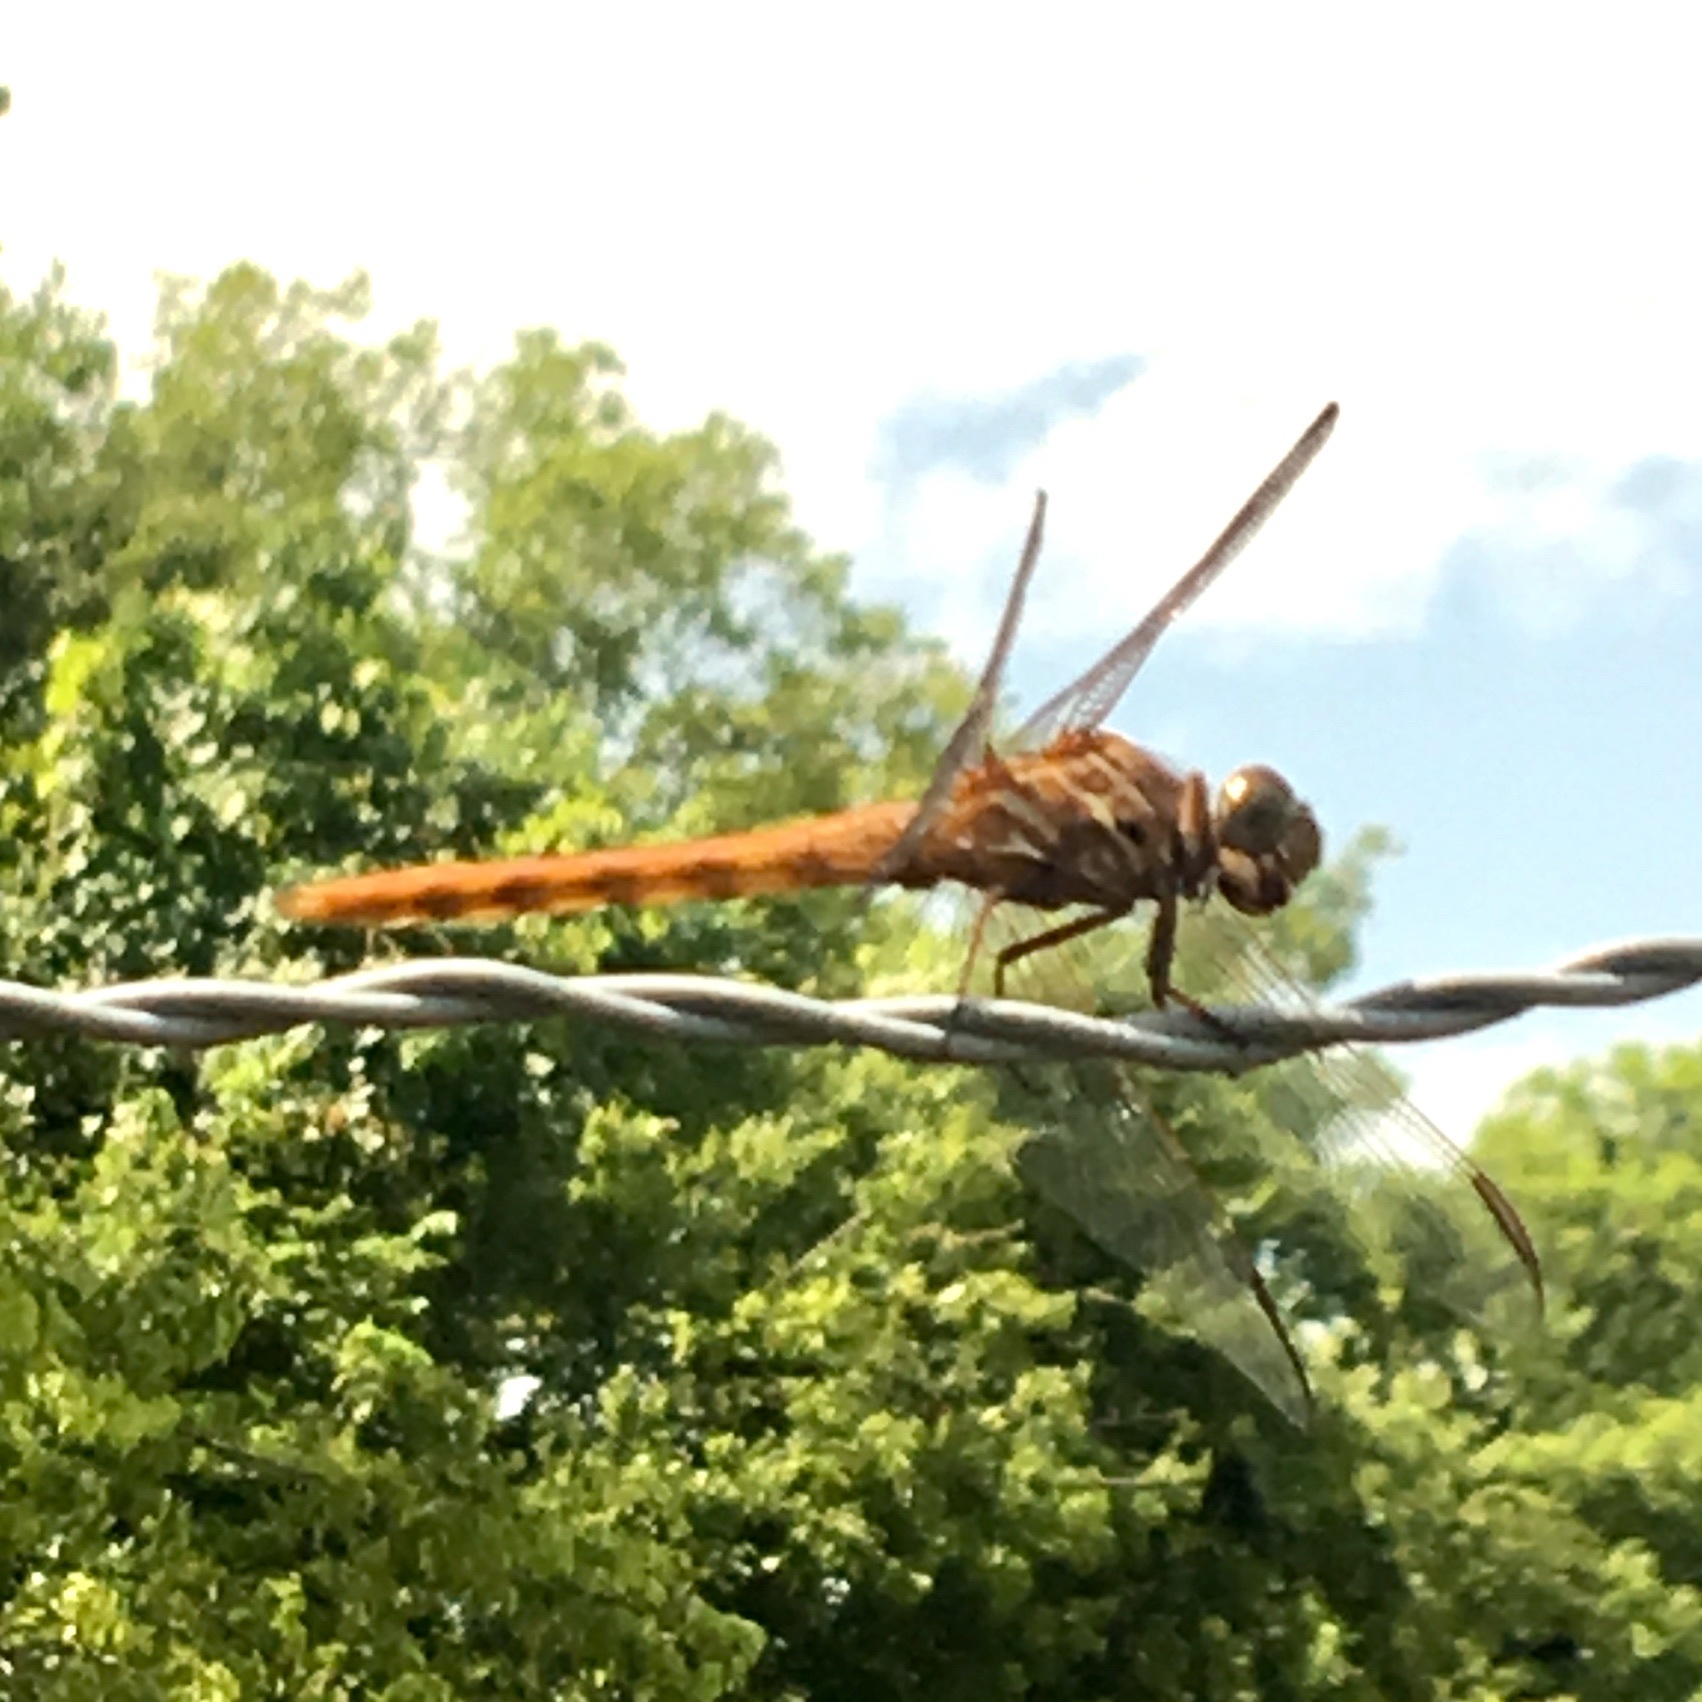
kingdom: Animalia
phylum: Arthropoda
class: Insecta
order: Odonata
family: Libellulidae
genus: Orthemis
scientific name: Orthemis ferruginea
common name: Roseate skimmer
